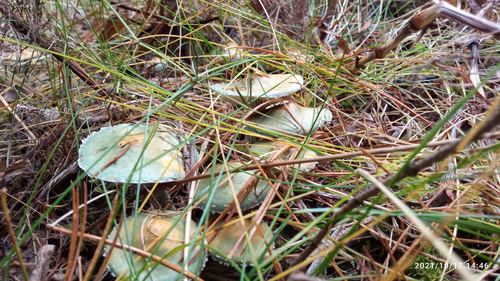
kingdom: Fungi
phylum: Basidiomycota
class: Agaricomycetes
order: Agaricales
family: Strophariaceae
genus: Stropharia
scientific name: Stropharia aeruginosa
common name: Verdigris roundhead
